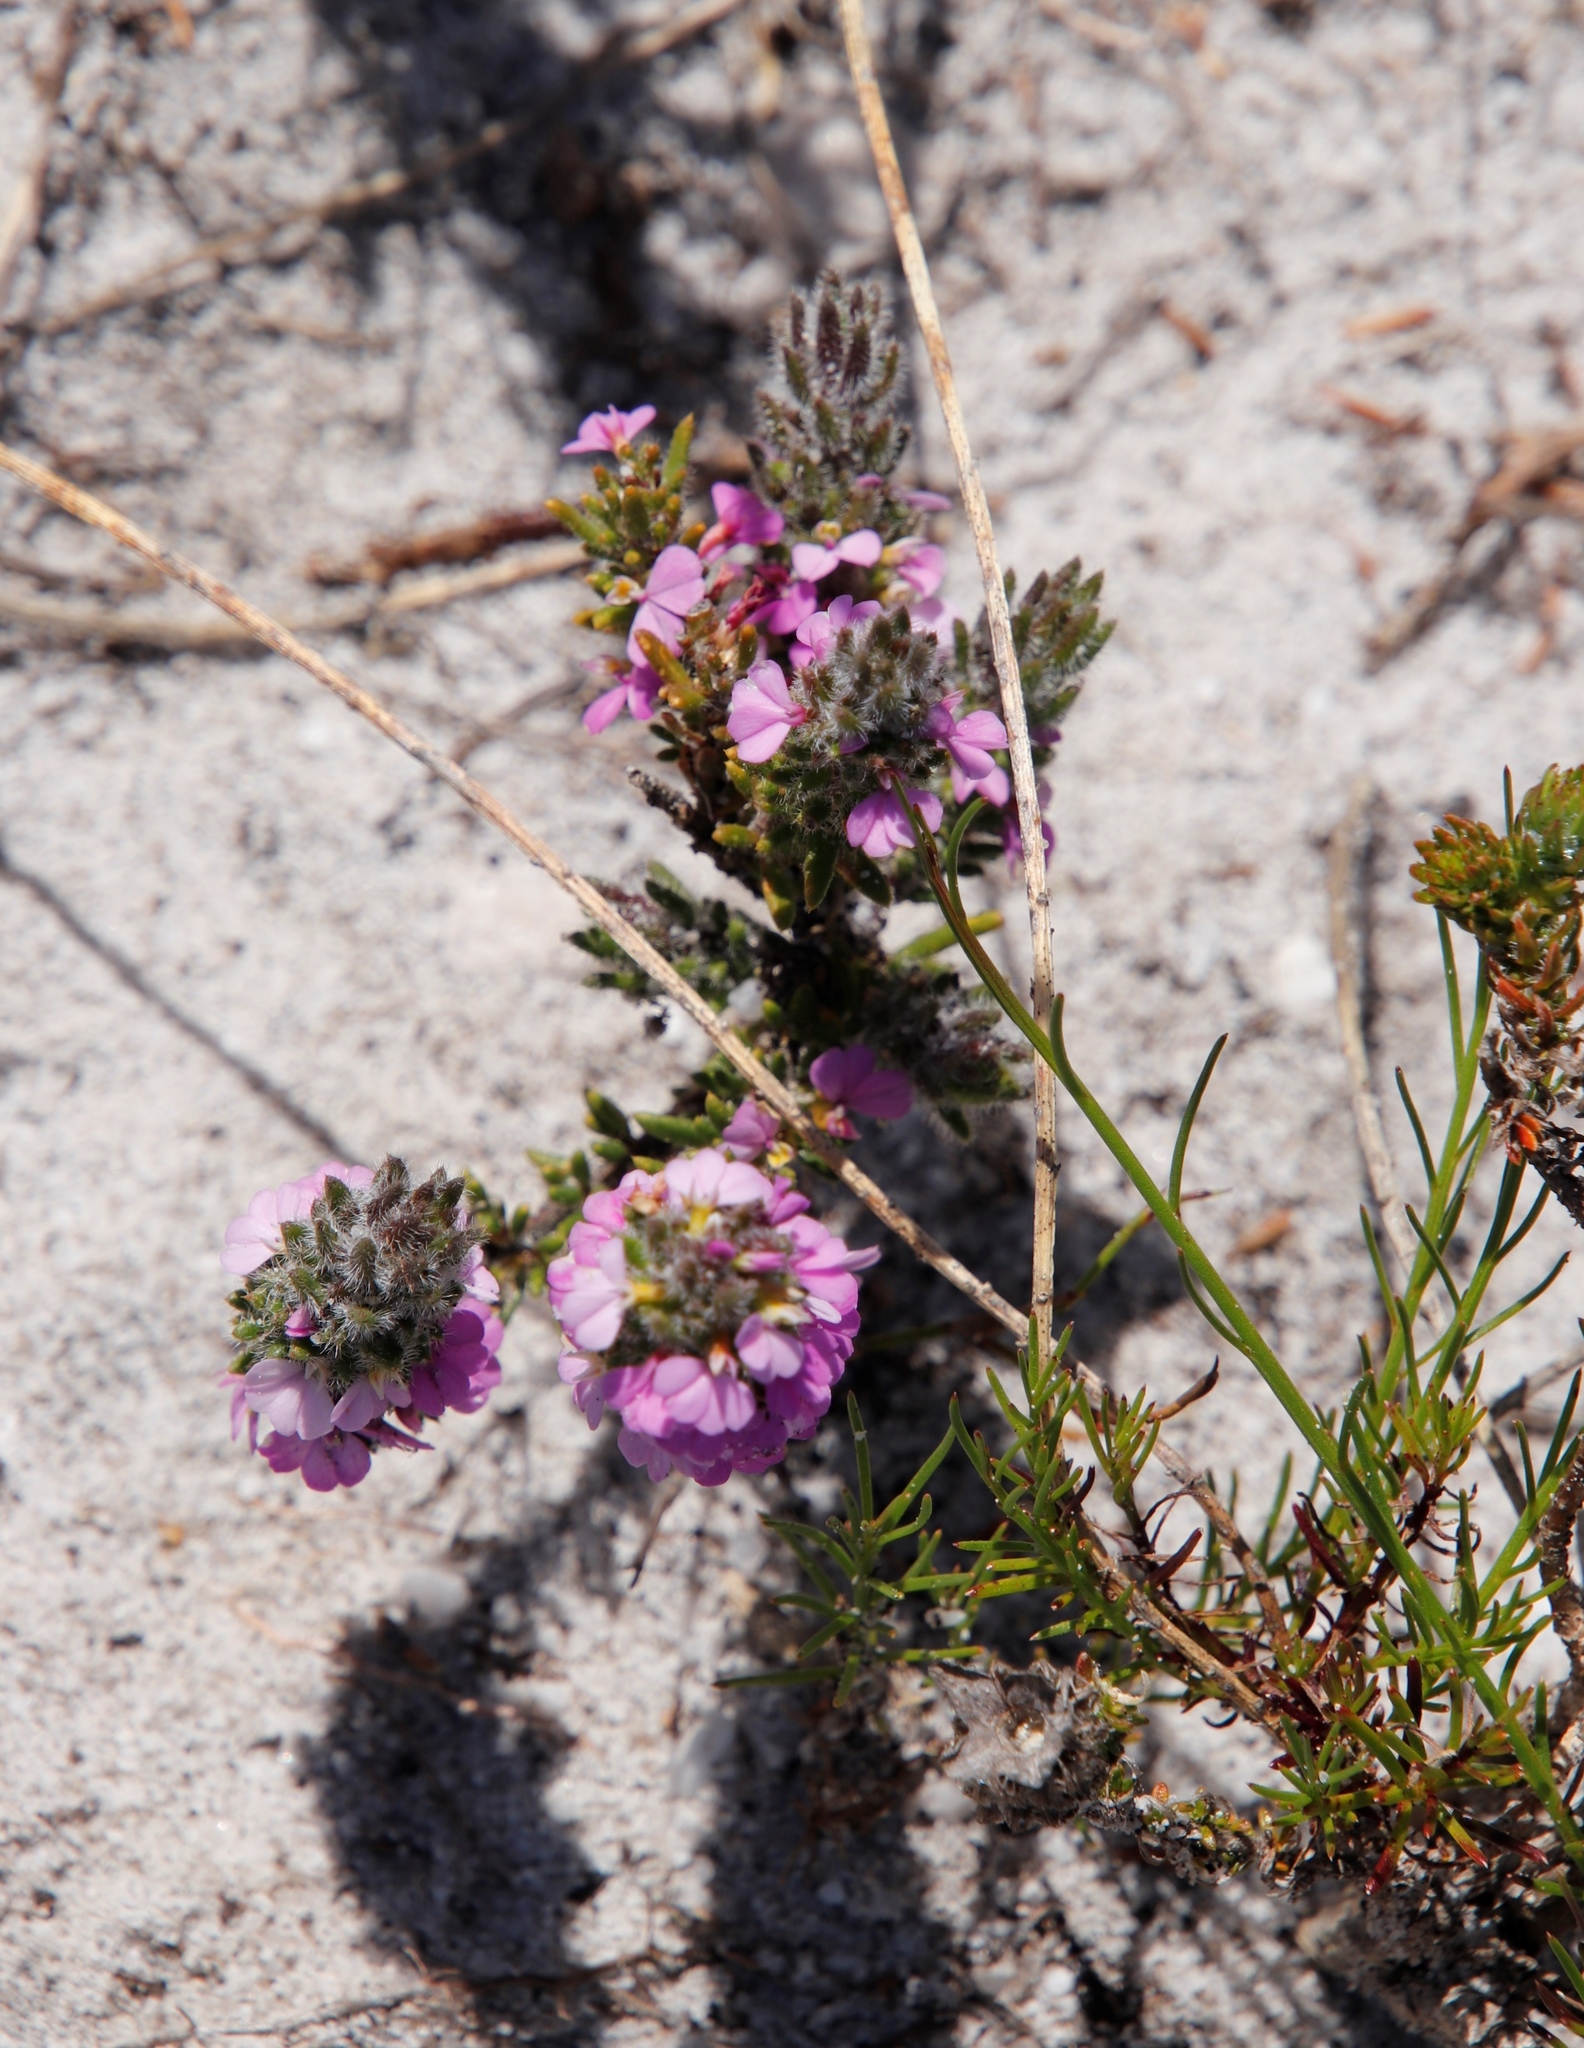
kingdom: Plantae
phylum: Tracheophyta
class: Magnoliopsida
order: Fabales
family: Polygalaceae
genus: Muraltia
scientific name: Muraltia thunbergii
